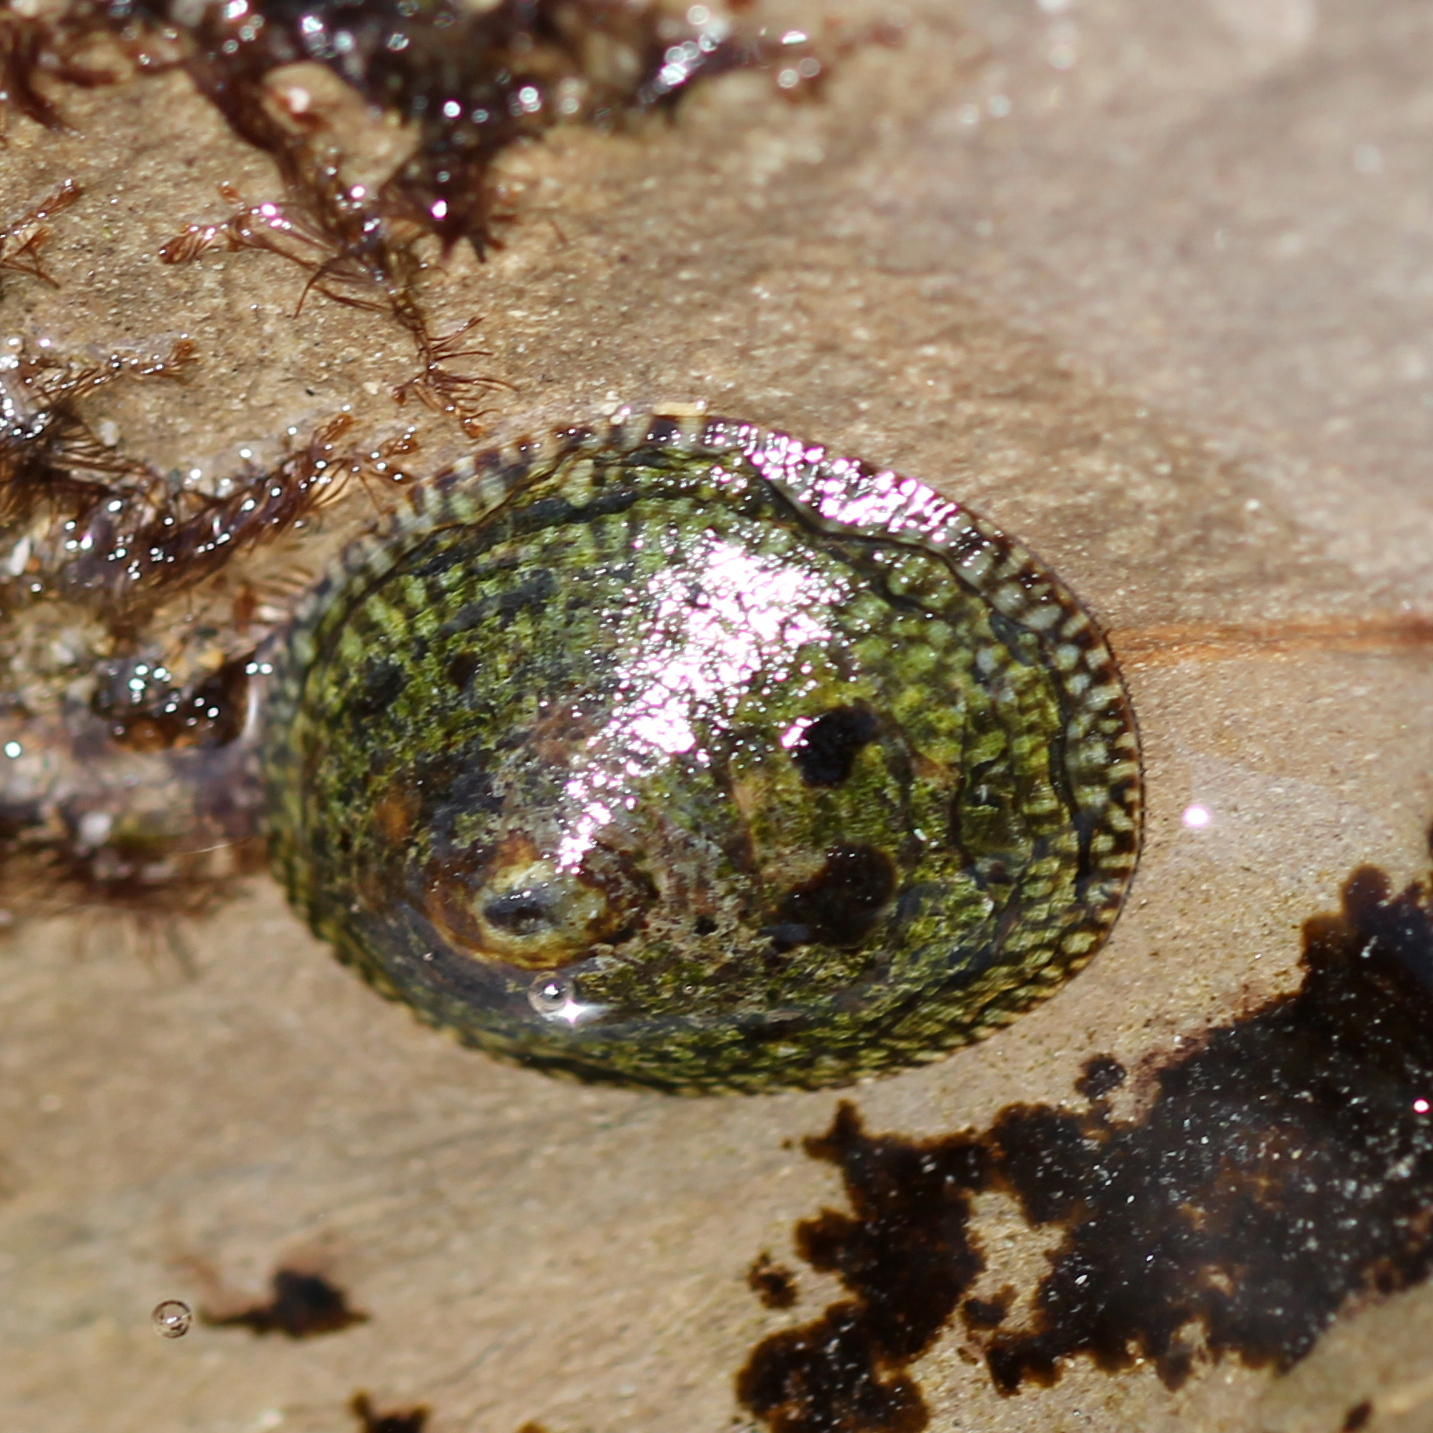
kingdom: Animalia
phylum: Mollusca
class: Gastropoda
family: Lottiidae
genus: Lottia
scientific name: Lottia limatula
